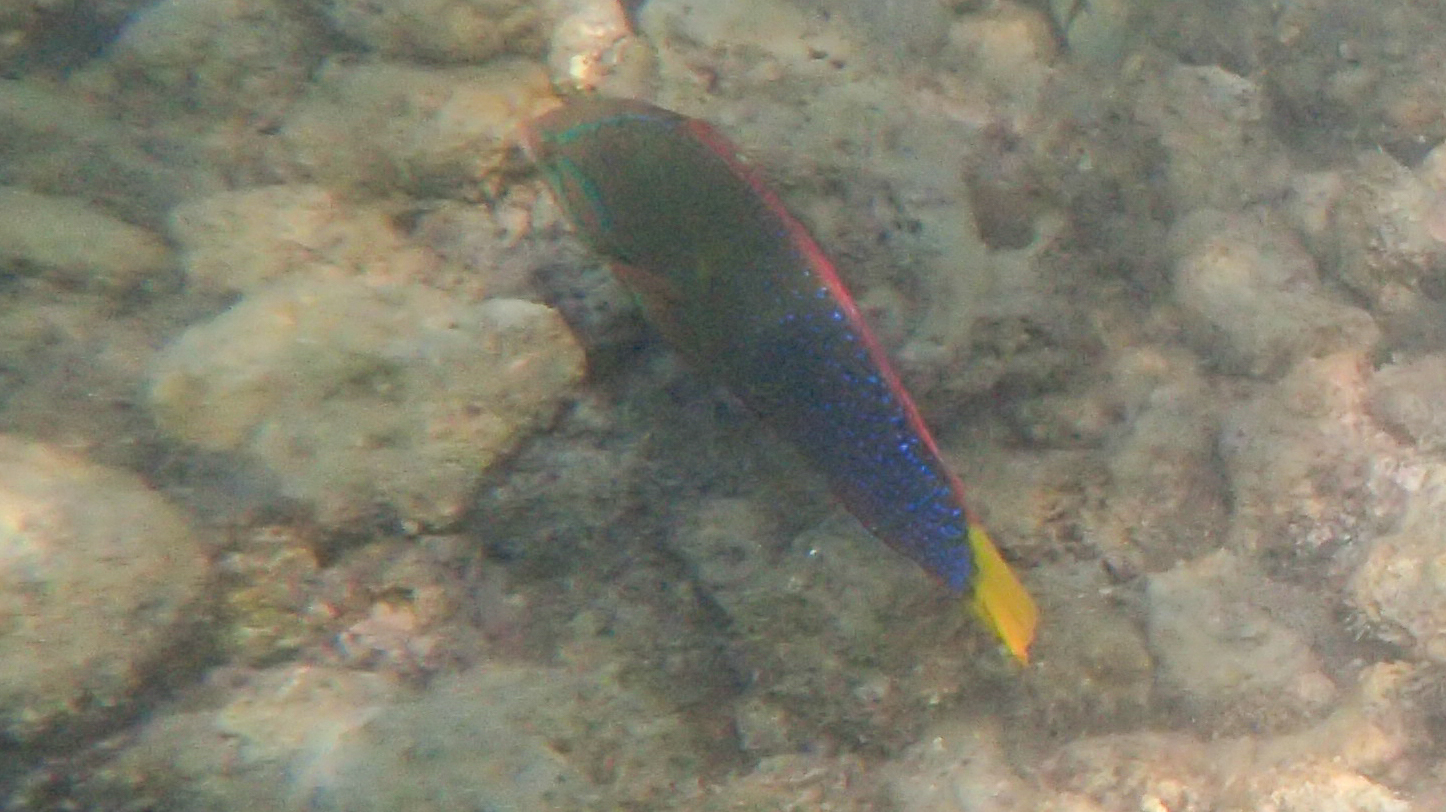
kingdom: Animalia
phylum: Chordata
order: Perciformes
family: Labridae
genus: Coris
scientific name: Coris gaimard
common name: Yellowtail coris
